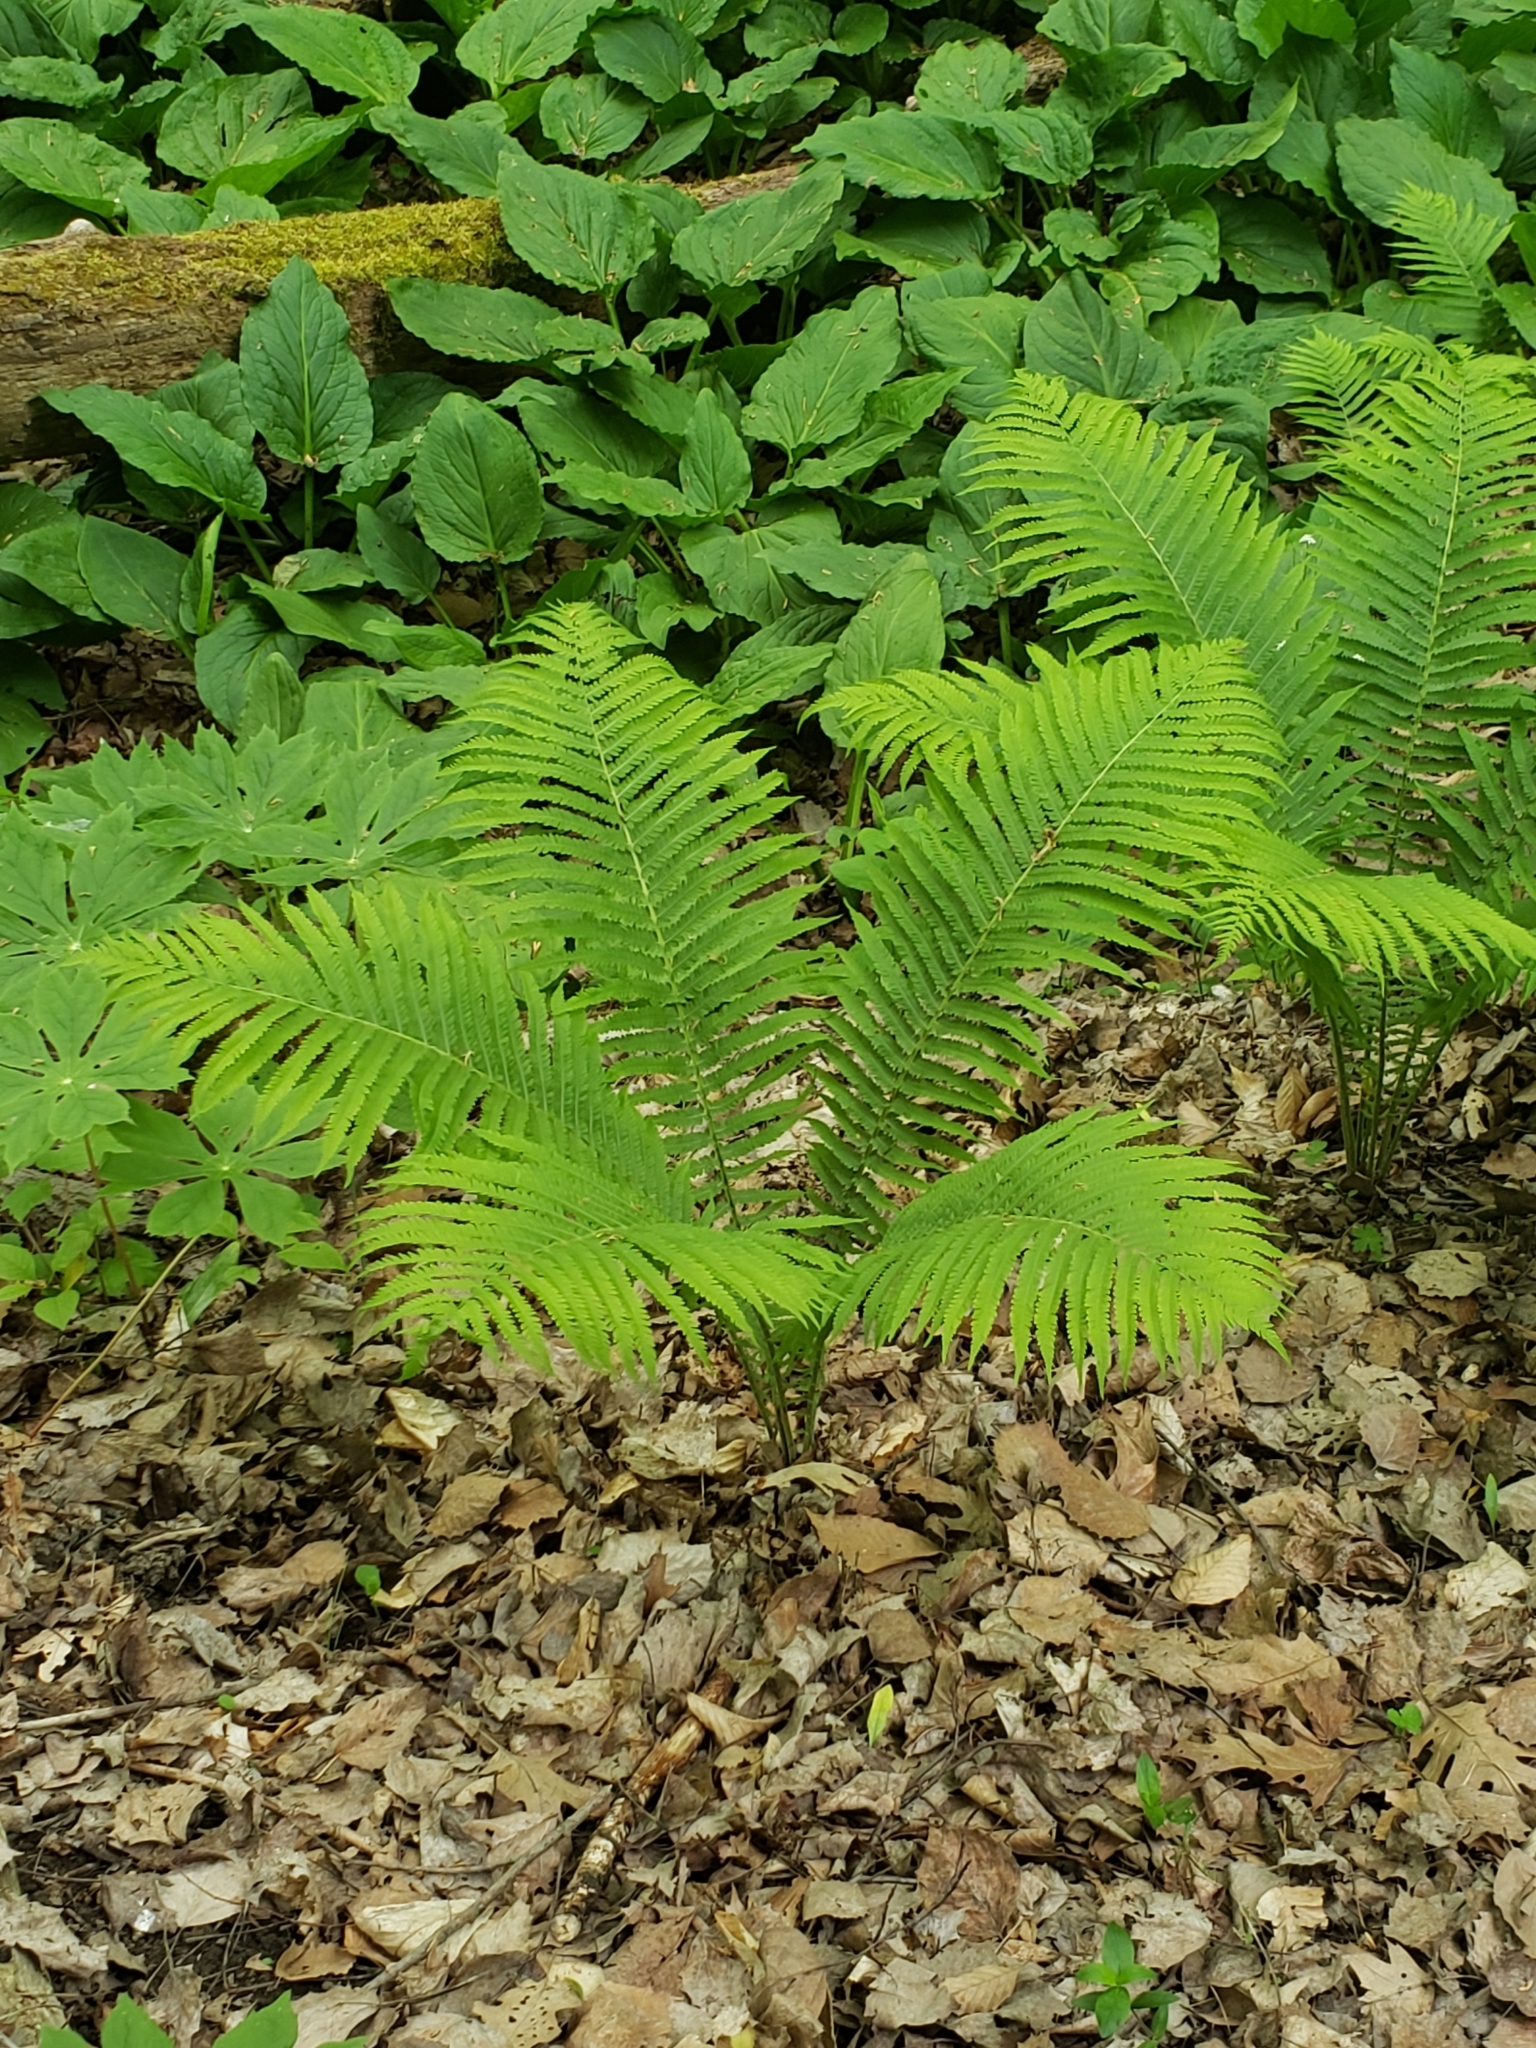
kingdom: Plantae
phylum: Tracheophyta
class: Polypodiopsida
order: Polypodiales
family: Onocleaceae
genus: Matteuccia
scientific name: Matteuccia struthiopteris
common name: Ostrich fern
